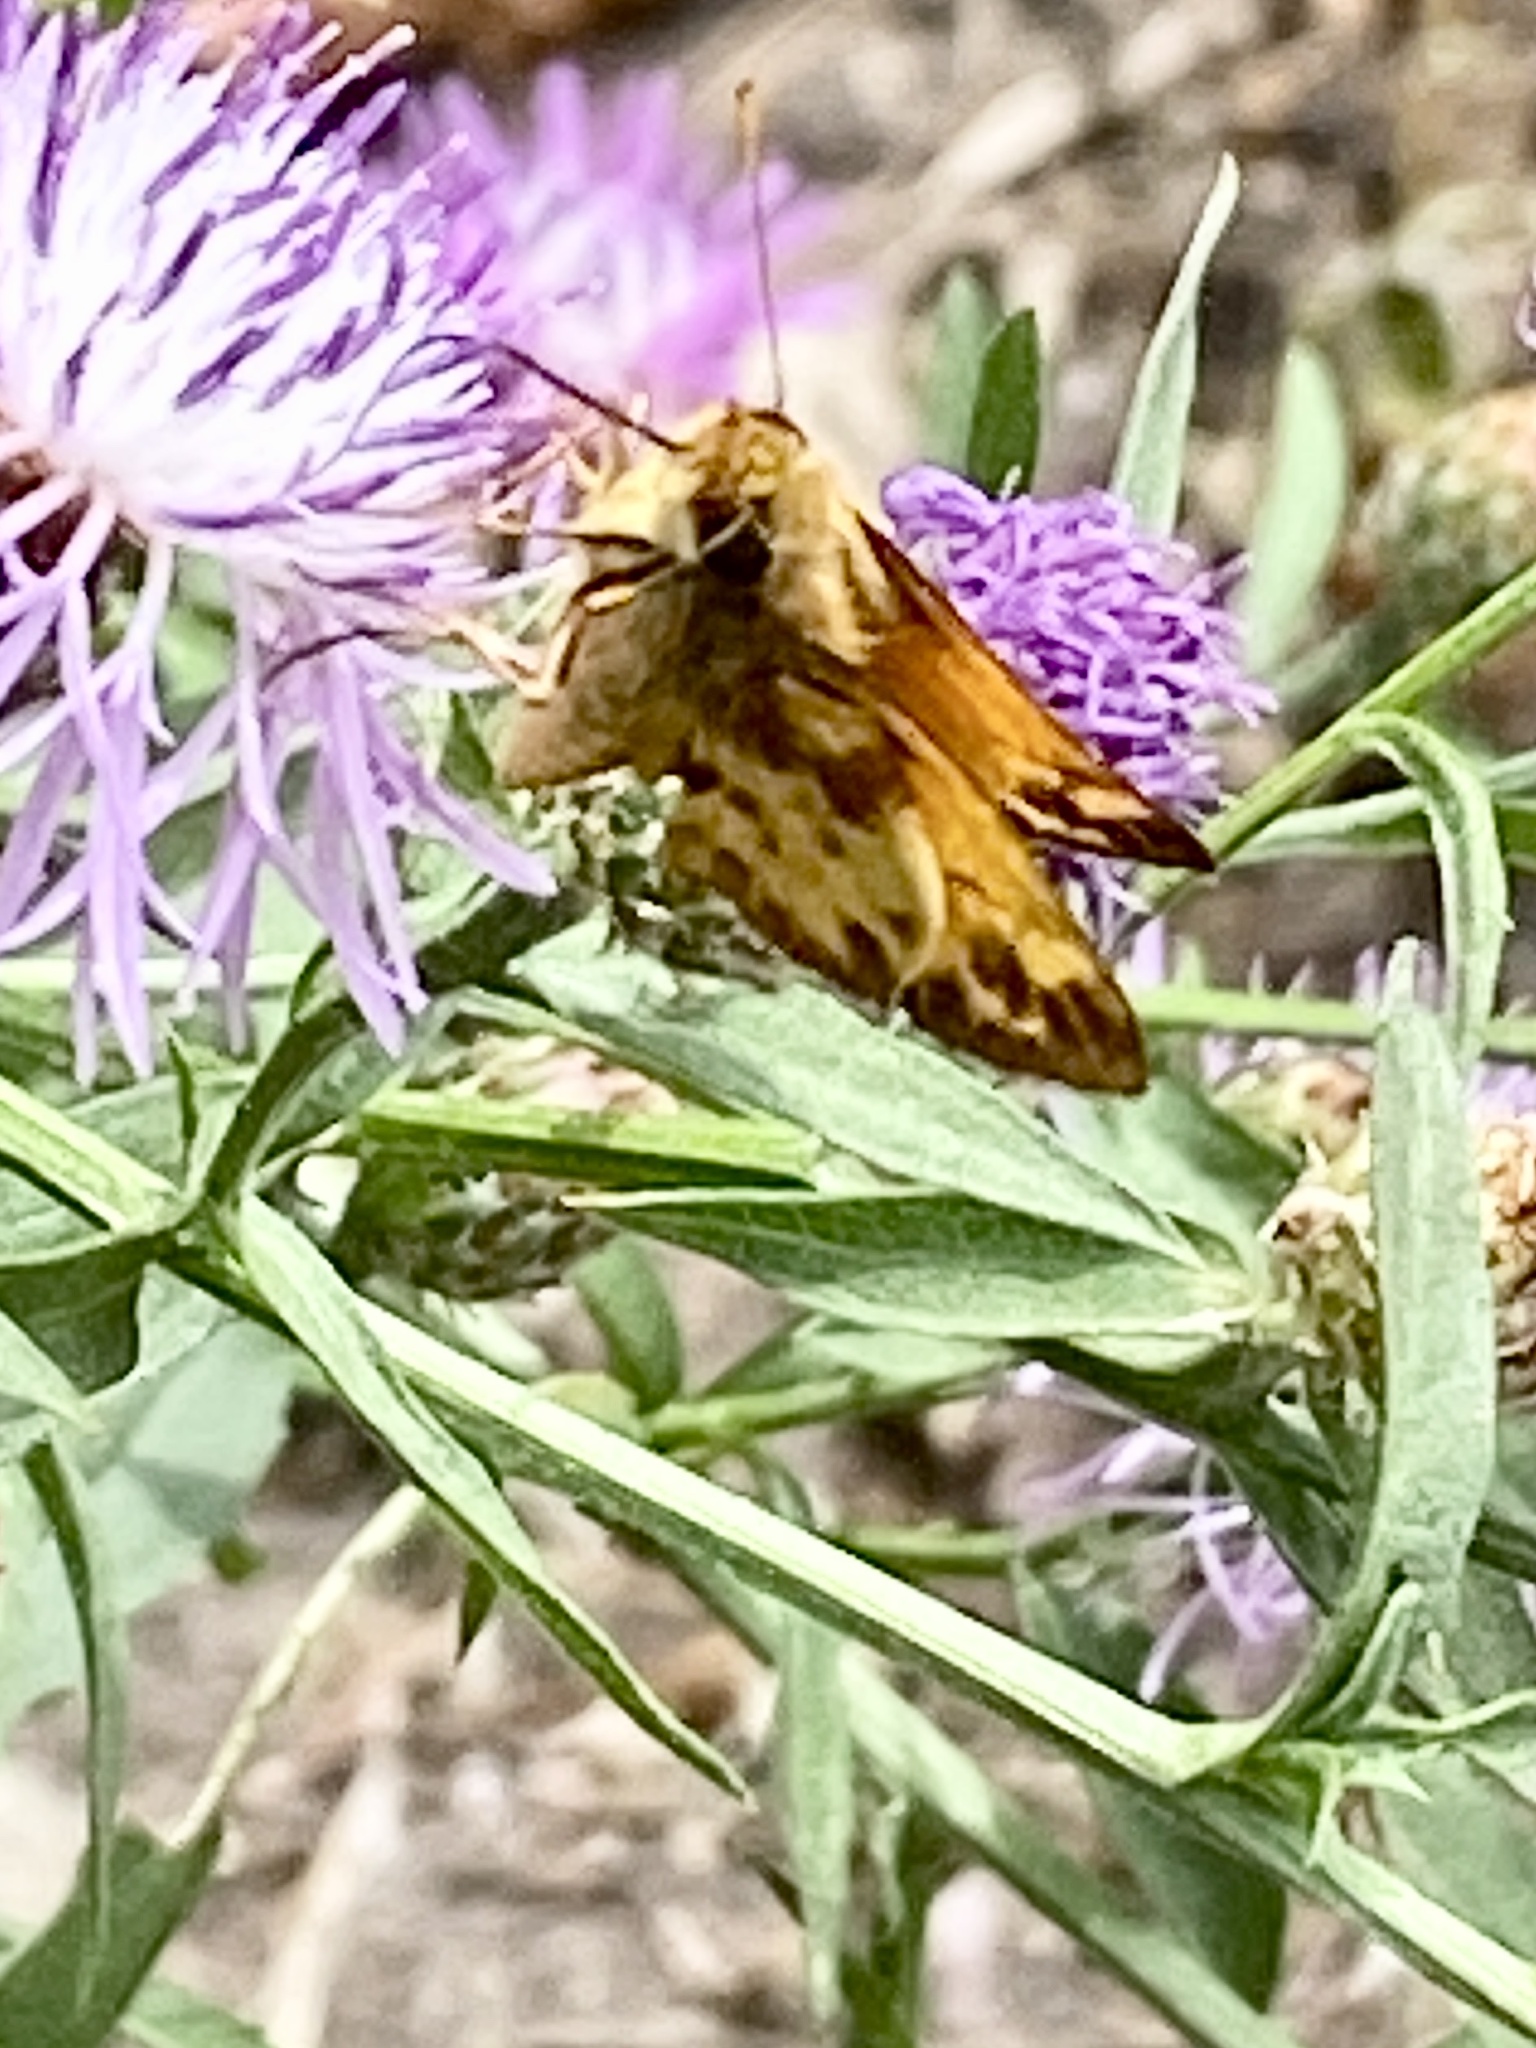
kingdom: Animalia
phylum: Arthropoda
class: Insecta
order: Lepidoptera
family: Hesperiidae
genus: Lon
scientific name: Lon zabulon
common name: Zabulon skipper
